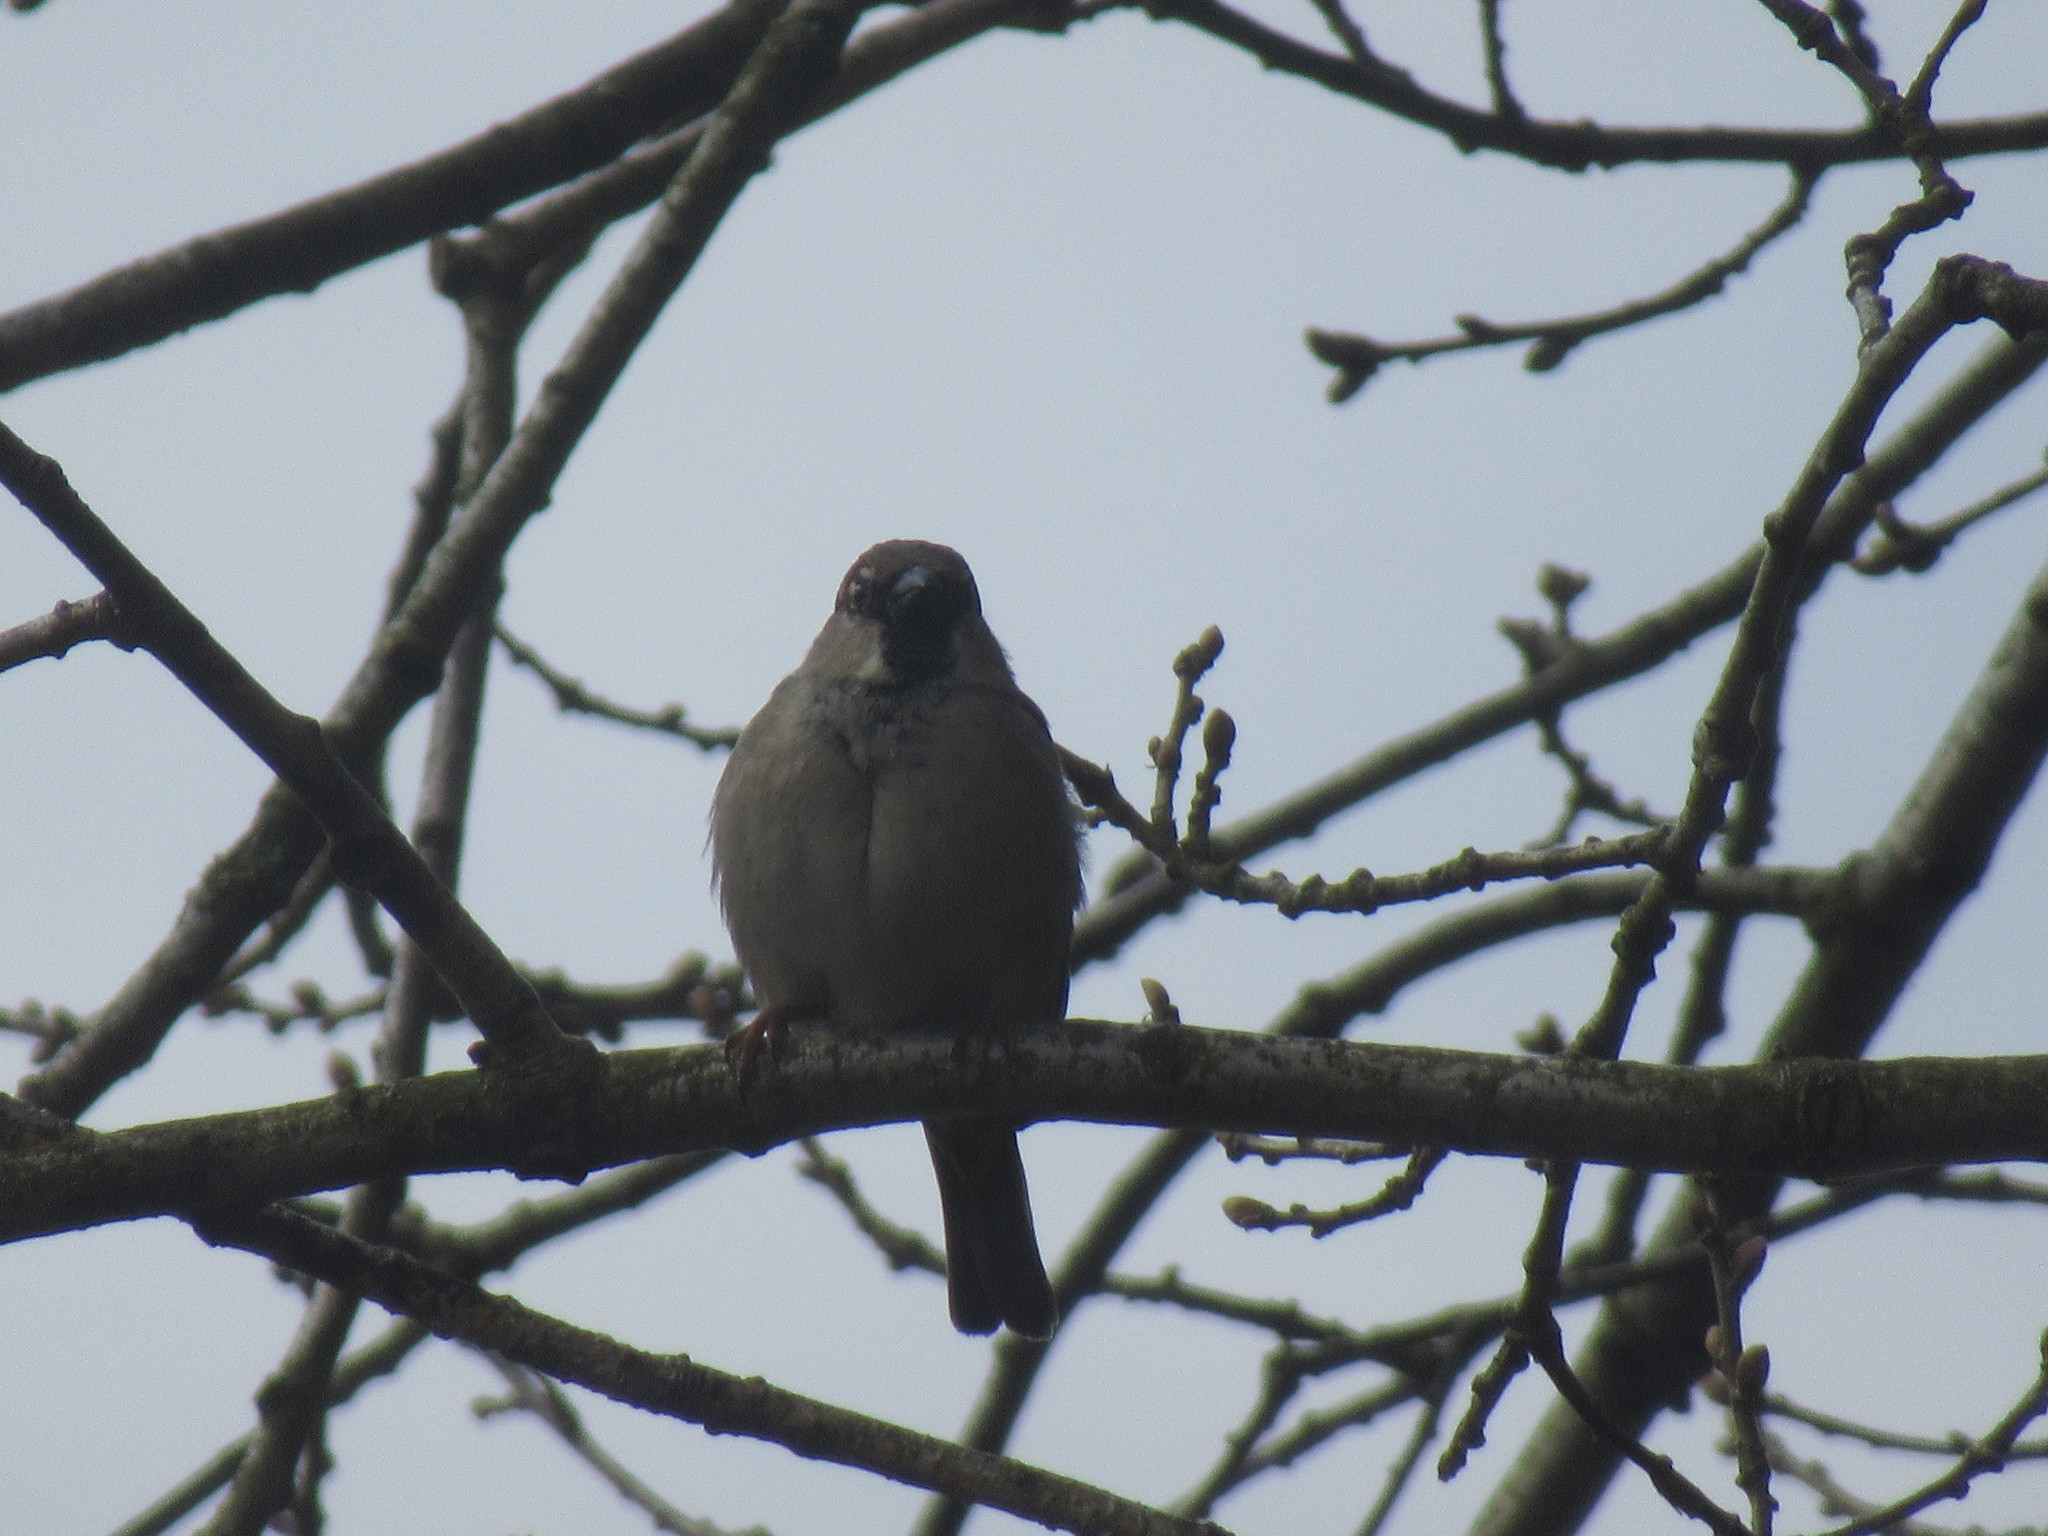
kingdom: Animalia
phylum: Chordata
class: Aves
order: Passeriformes
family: Passeridae
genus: Passer
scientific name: Passer domesticus
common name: House sparrow
